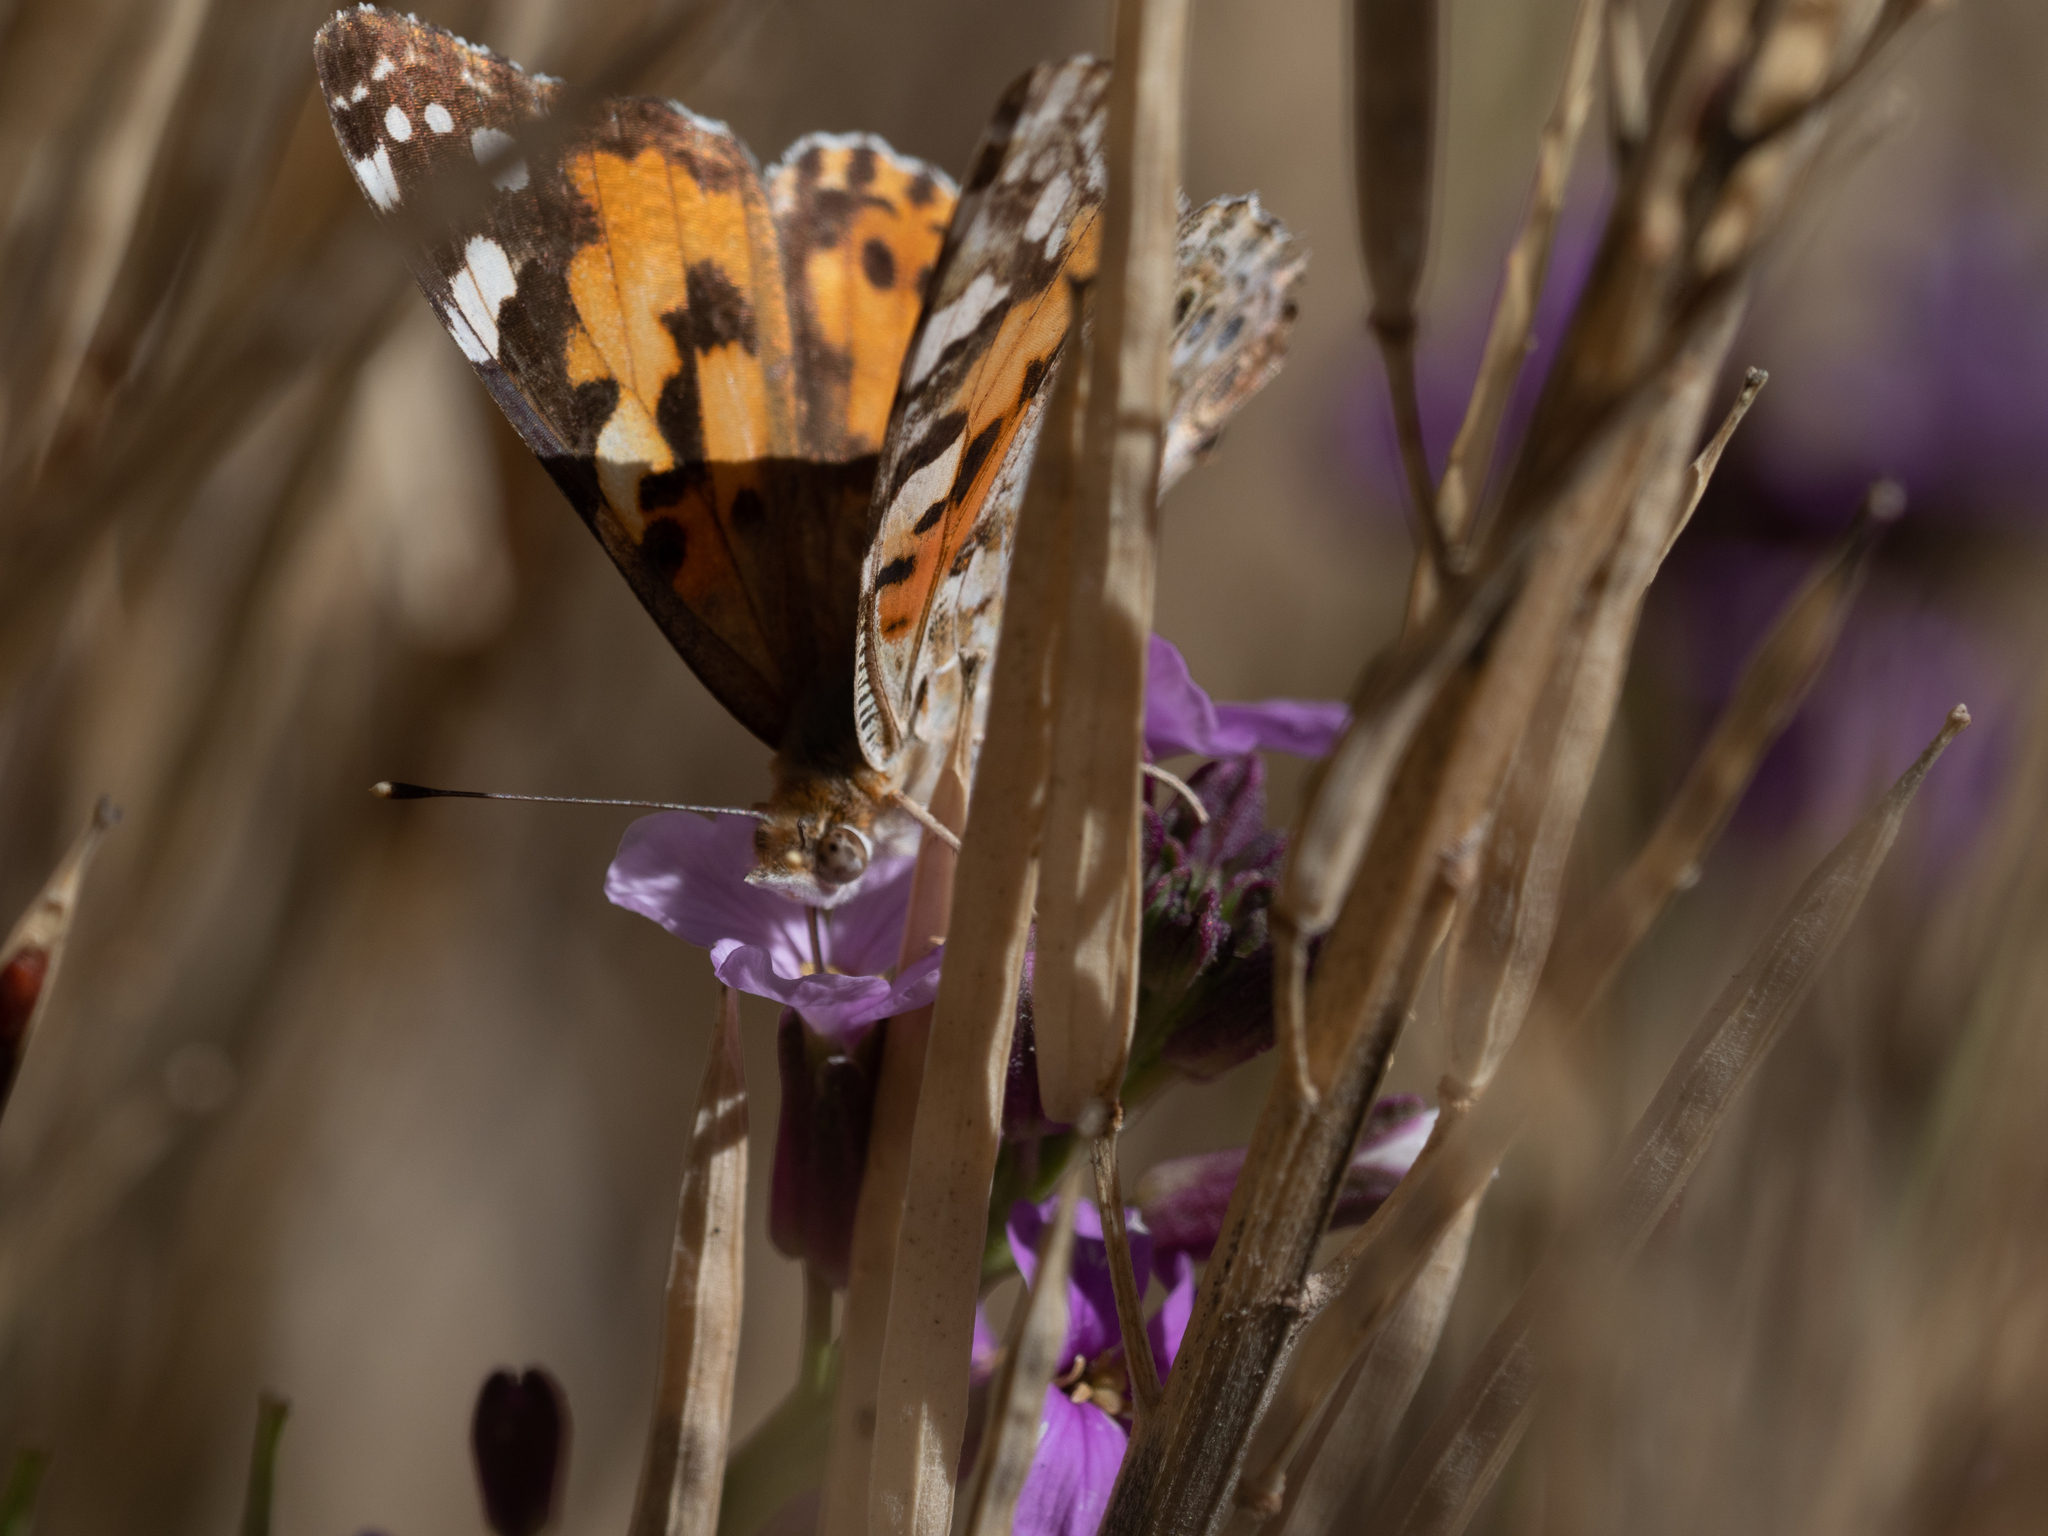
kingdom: Animalia
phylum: Arthropoda
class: Insecta
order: Lepidoptera
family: Nymphalidae
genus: Vanessa
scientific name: Vanessa cardui
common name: Painted lady
